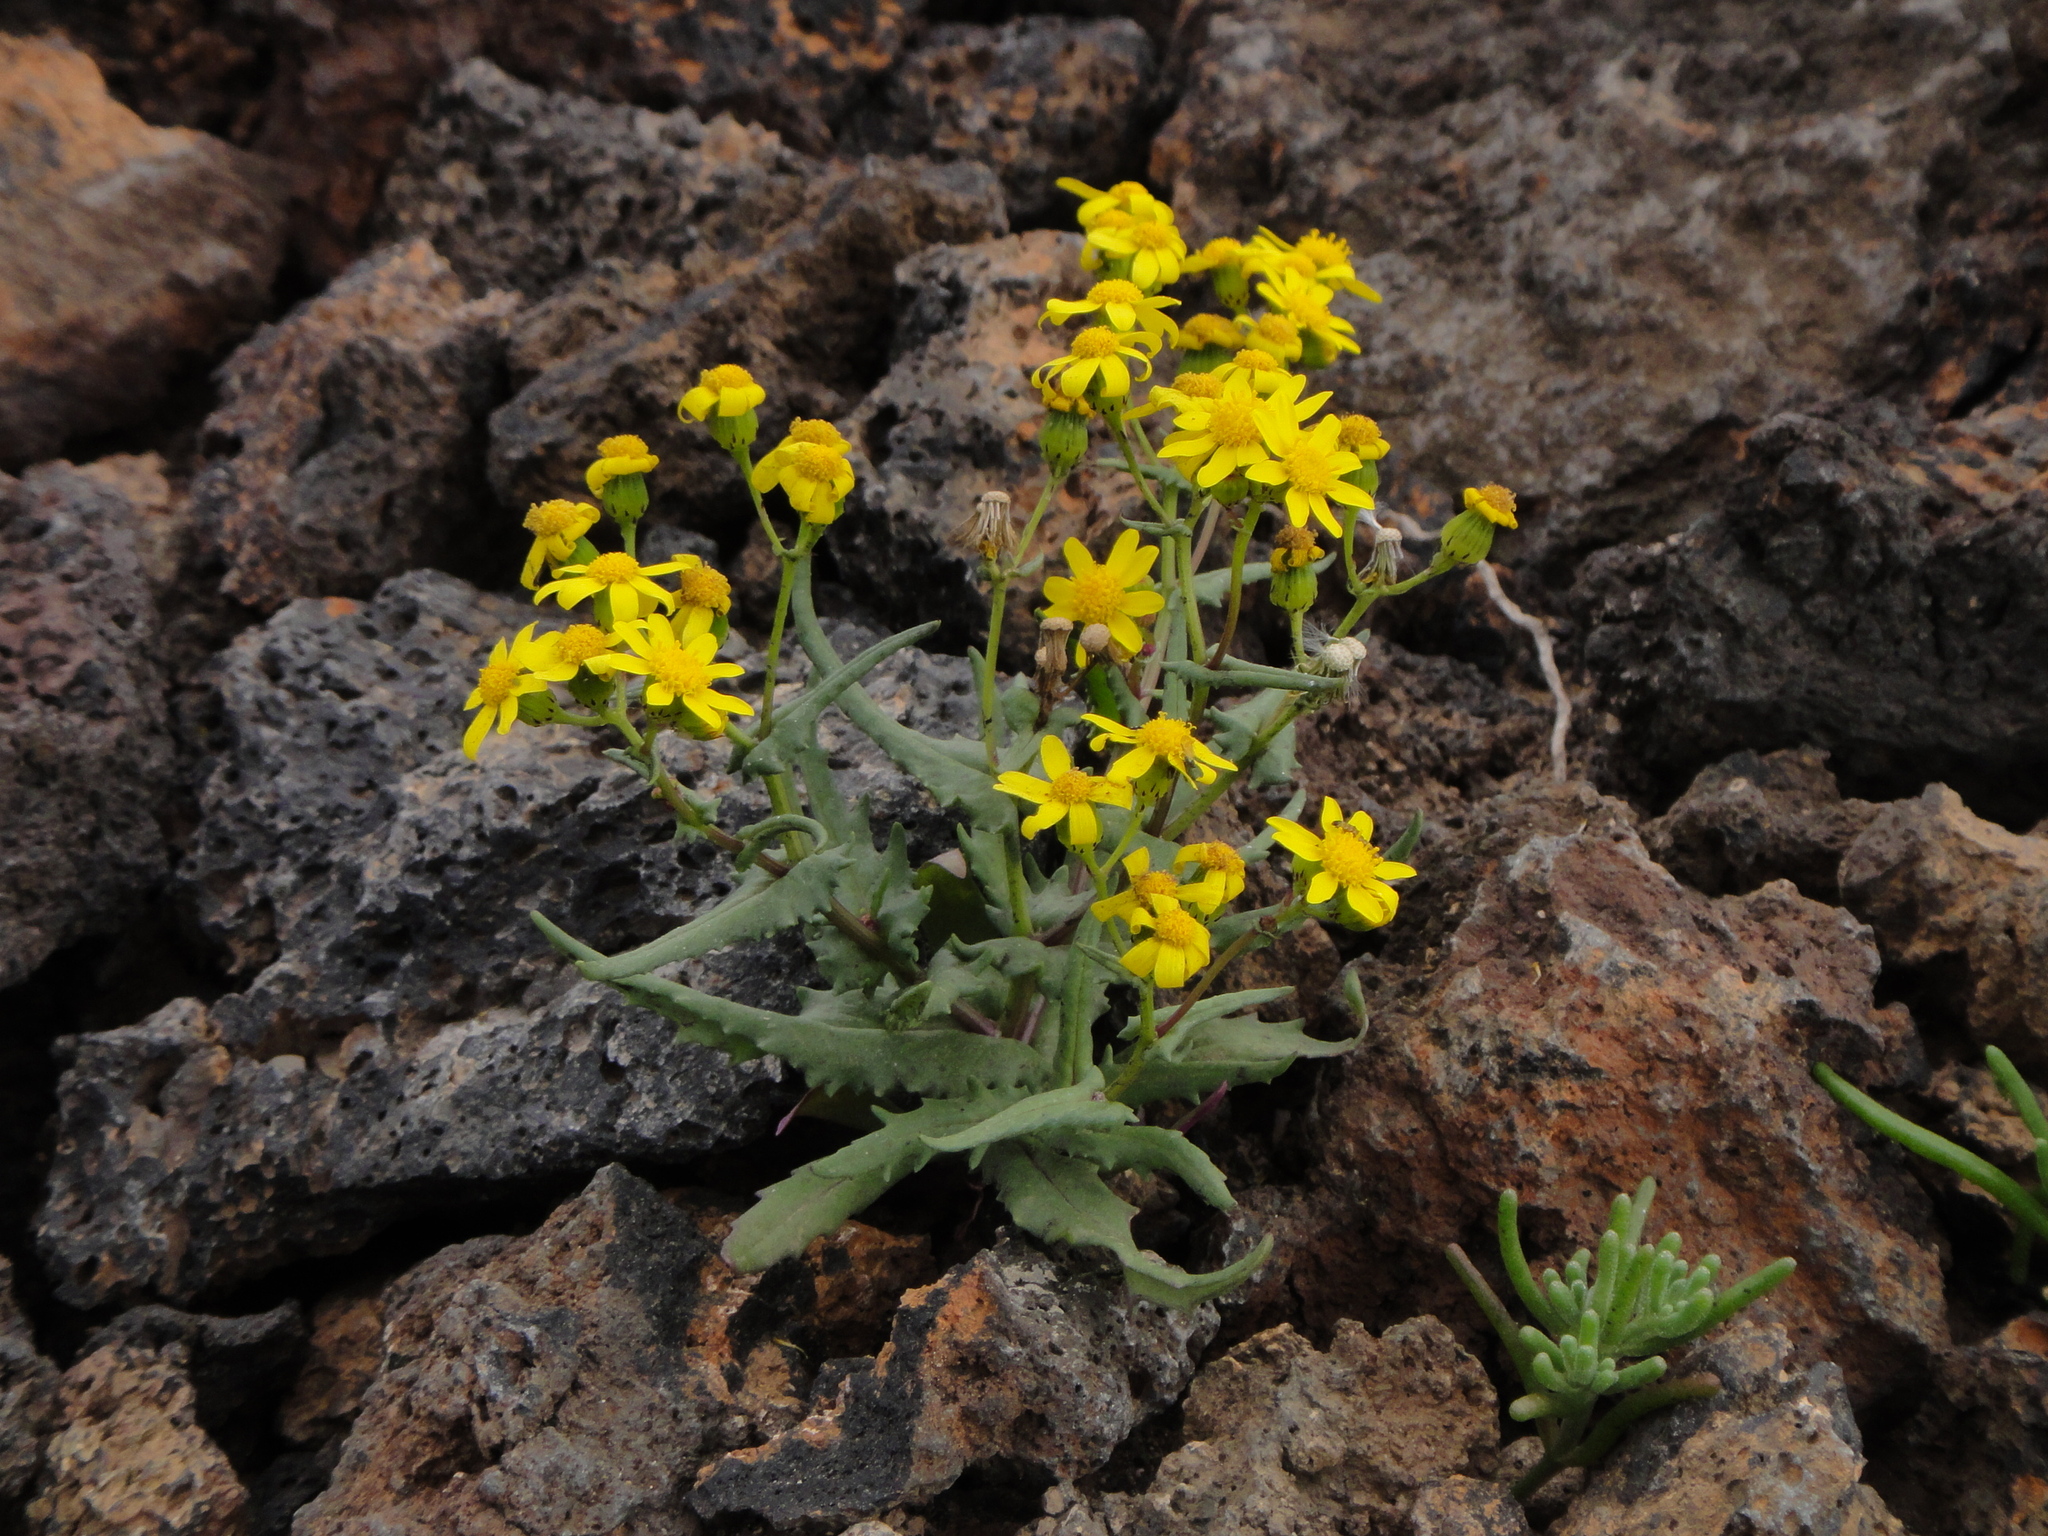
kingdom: Plantae
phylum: Tracheophyta
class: Magnoliopsida
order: Asterales
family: Asteraceae
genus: Senecio
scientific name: Senecio leucanthemifolius
